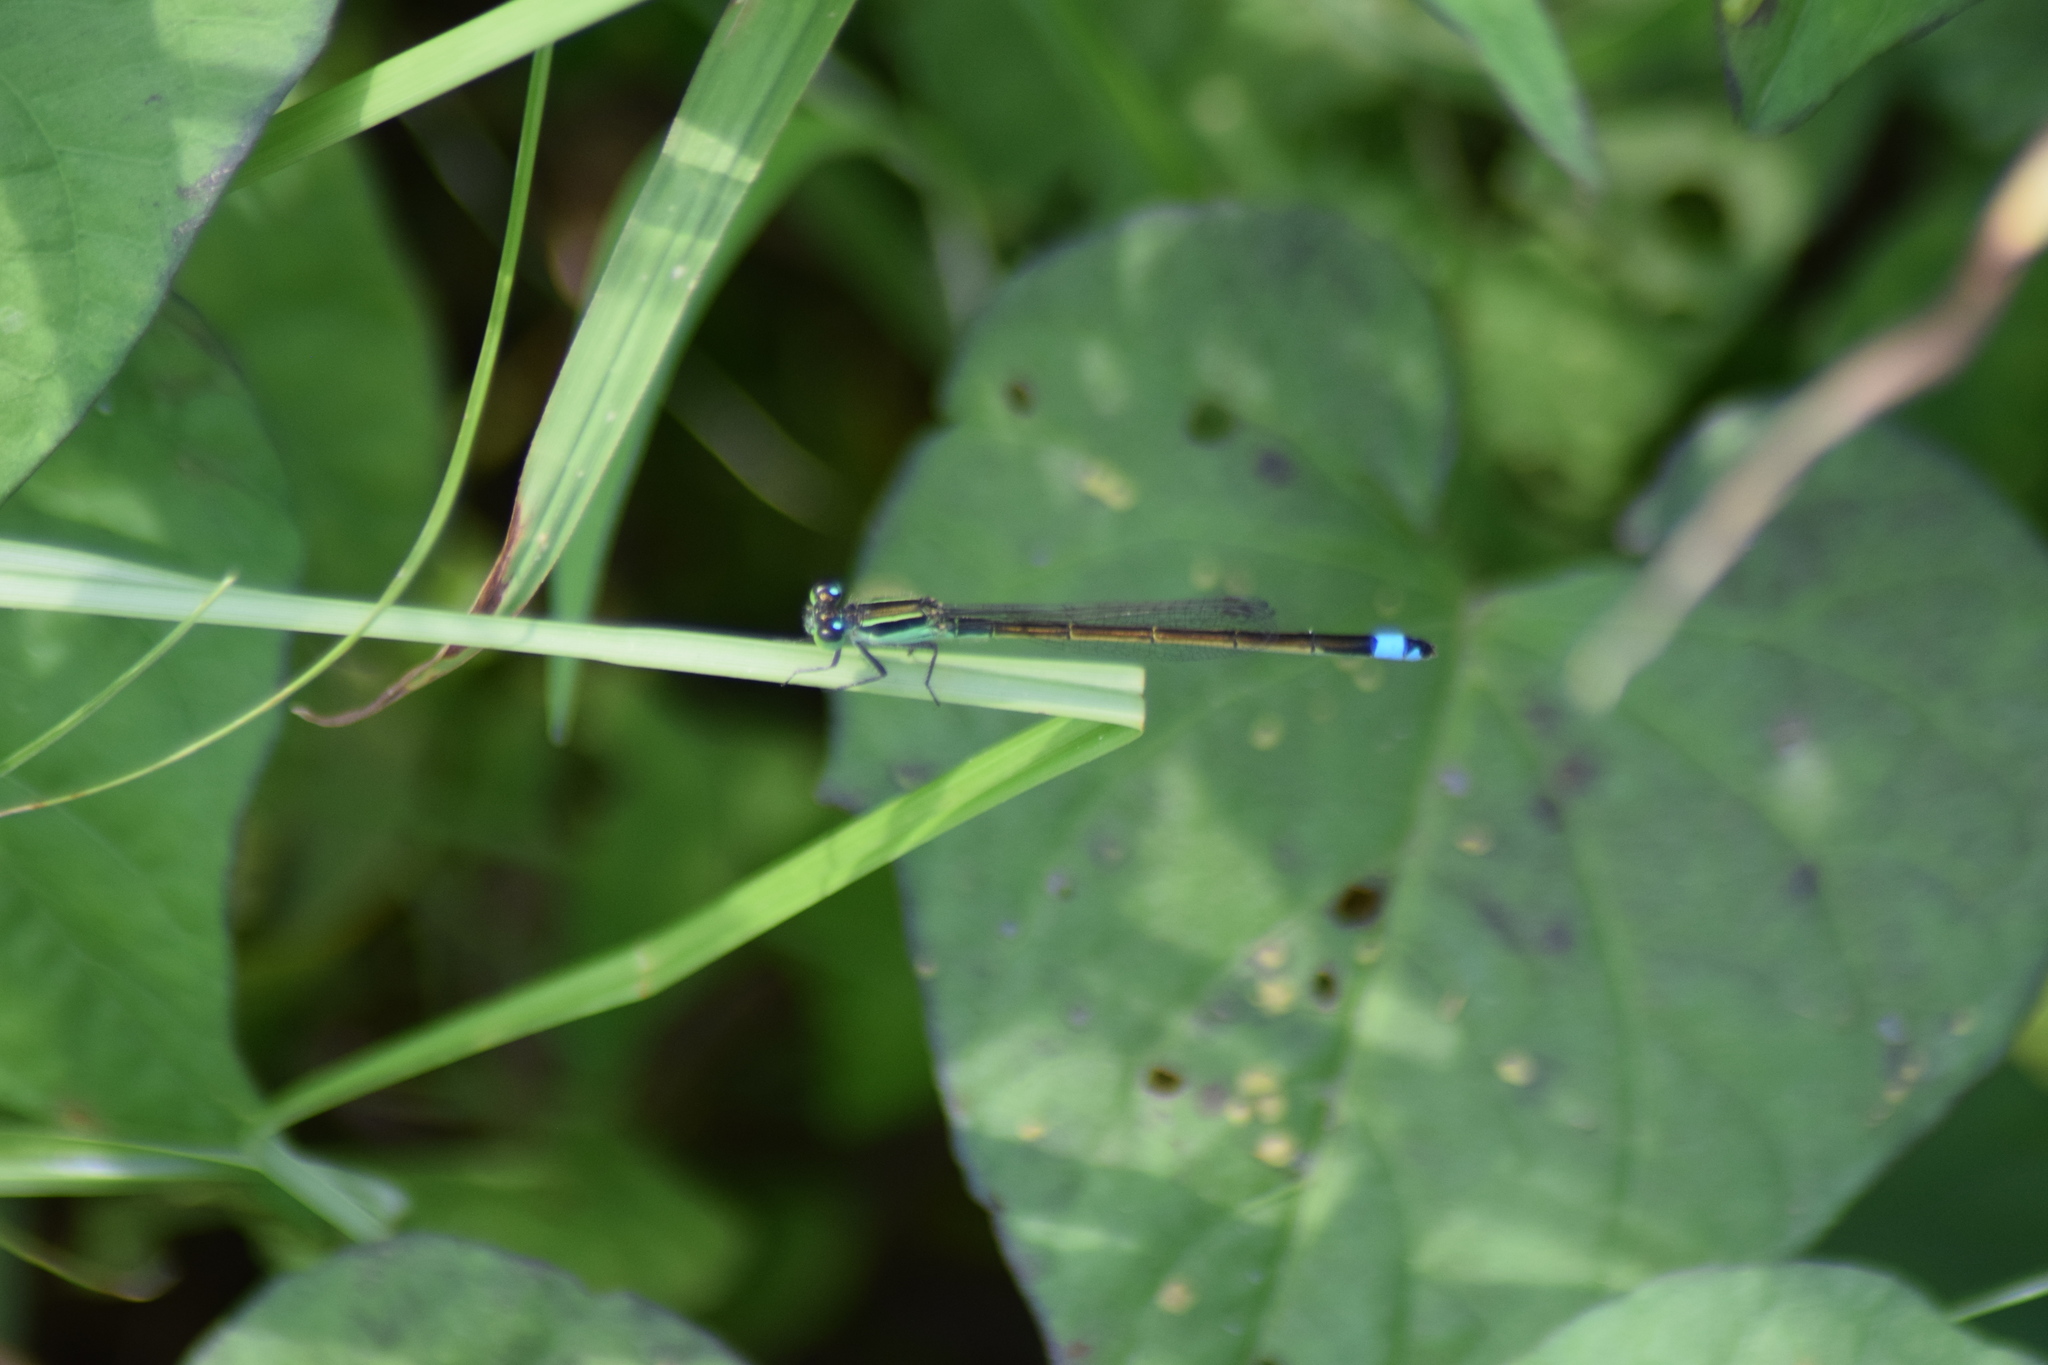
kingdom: Animalia
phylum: Arthropoda
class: Insecta
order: Odonata
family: Coenagrionidae
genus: Ischnura
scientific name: Ischnura ramburii
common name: Rambur's forktail
